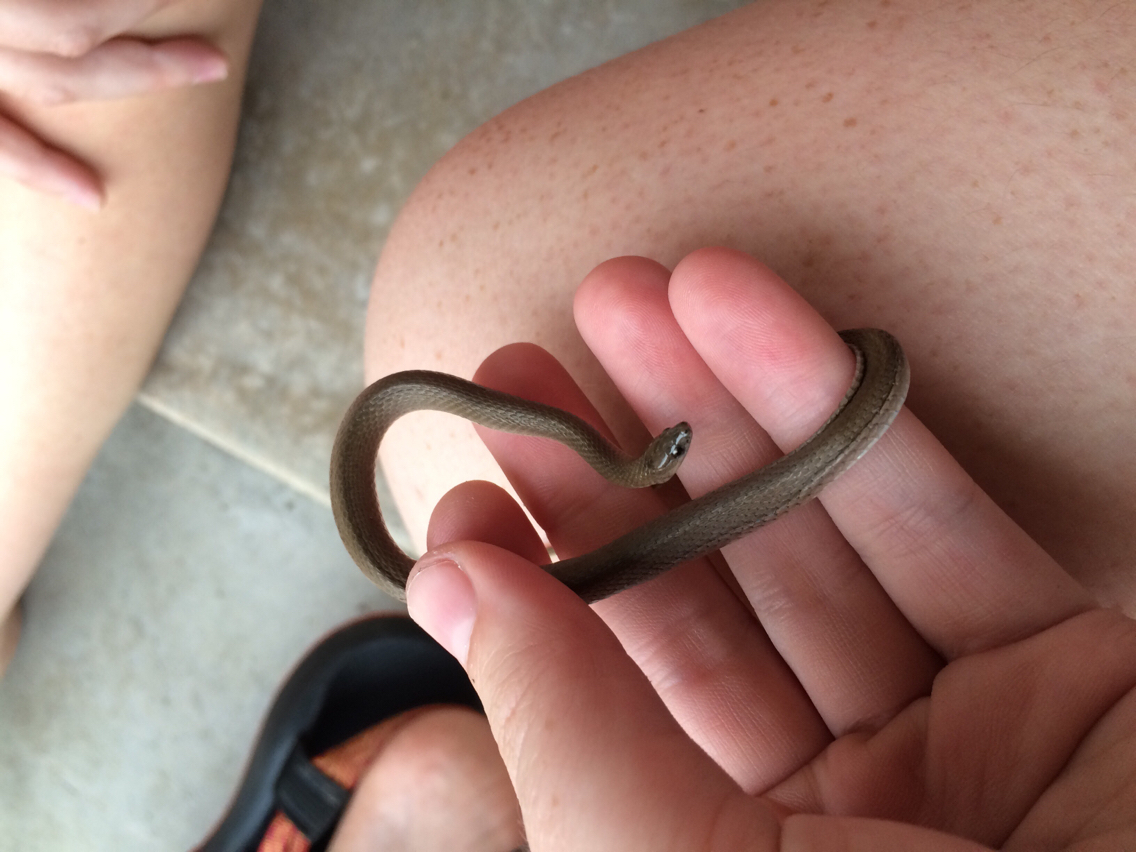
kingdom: Animalia
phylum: Chordata
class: Squamata
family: Colubridae
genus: Haldea
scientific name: Haldea striatula
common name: Rough earth snake
